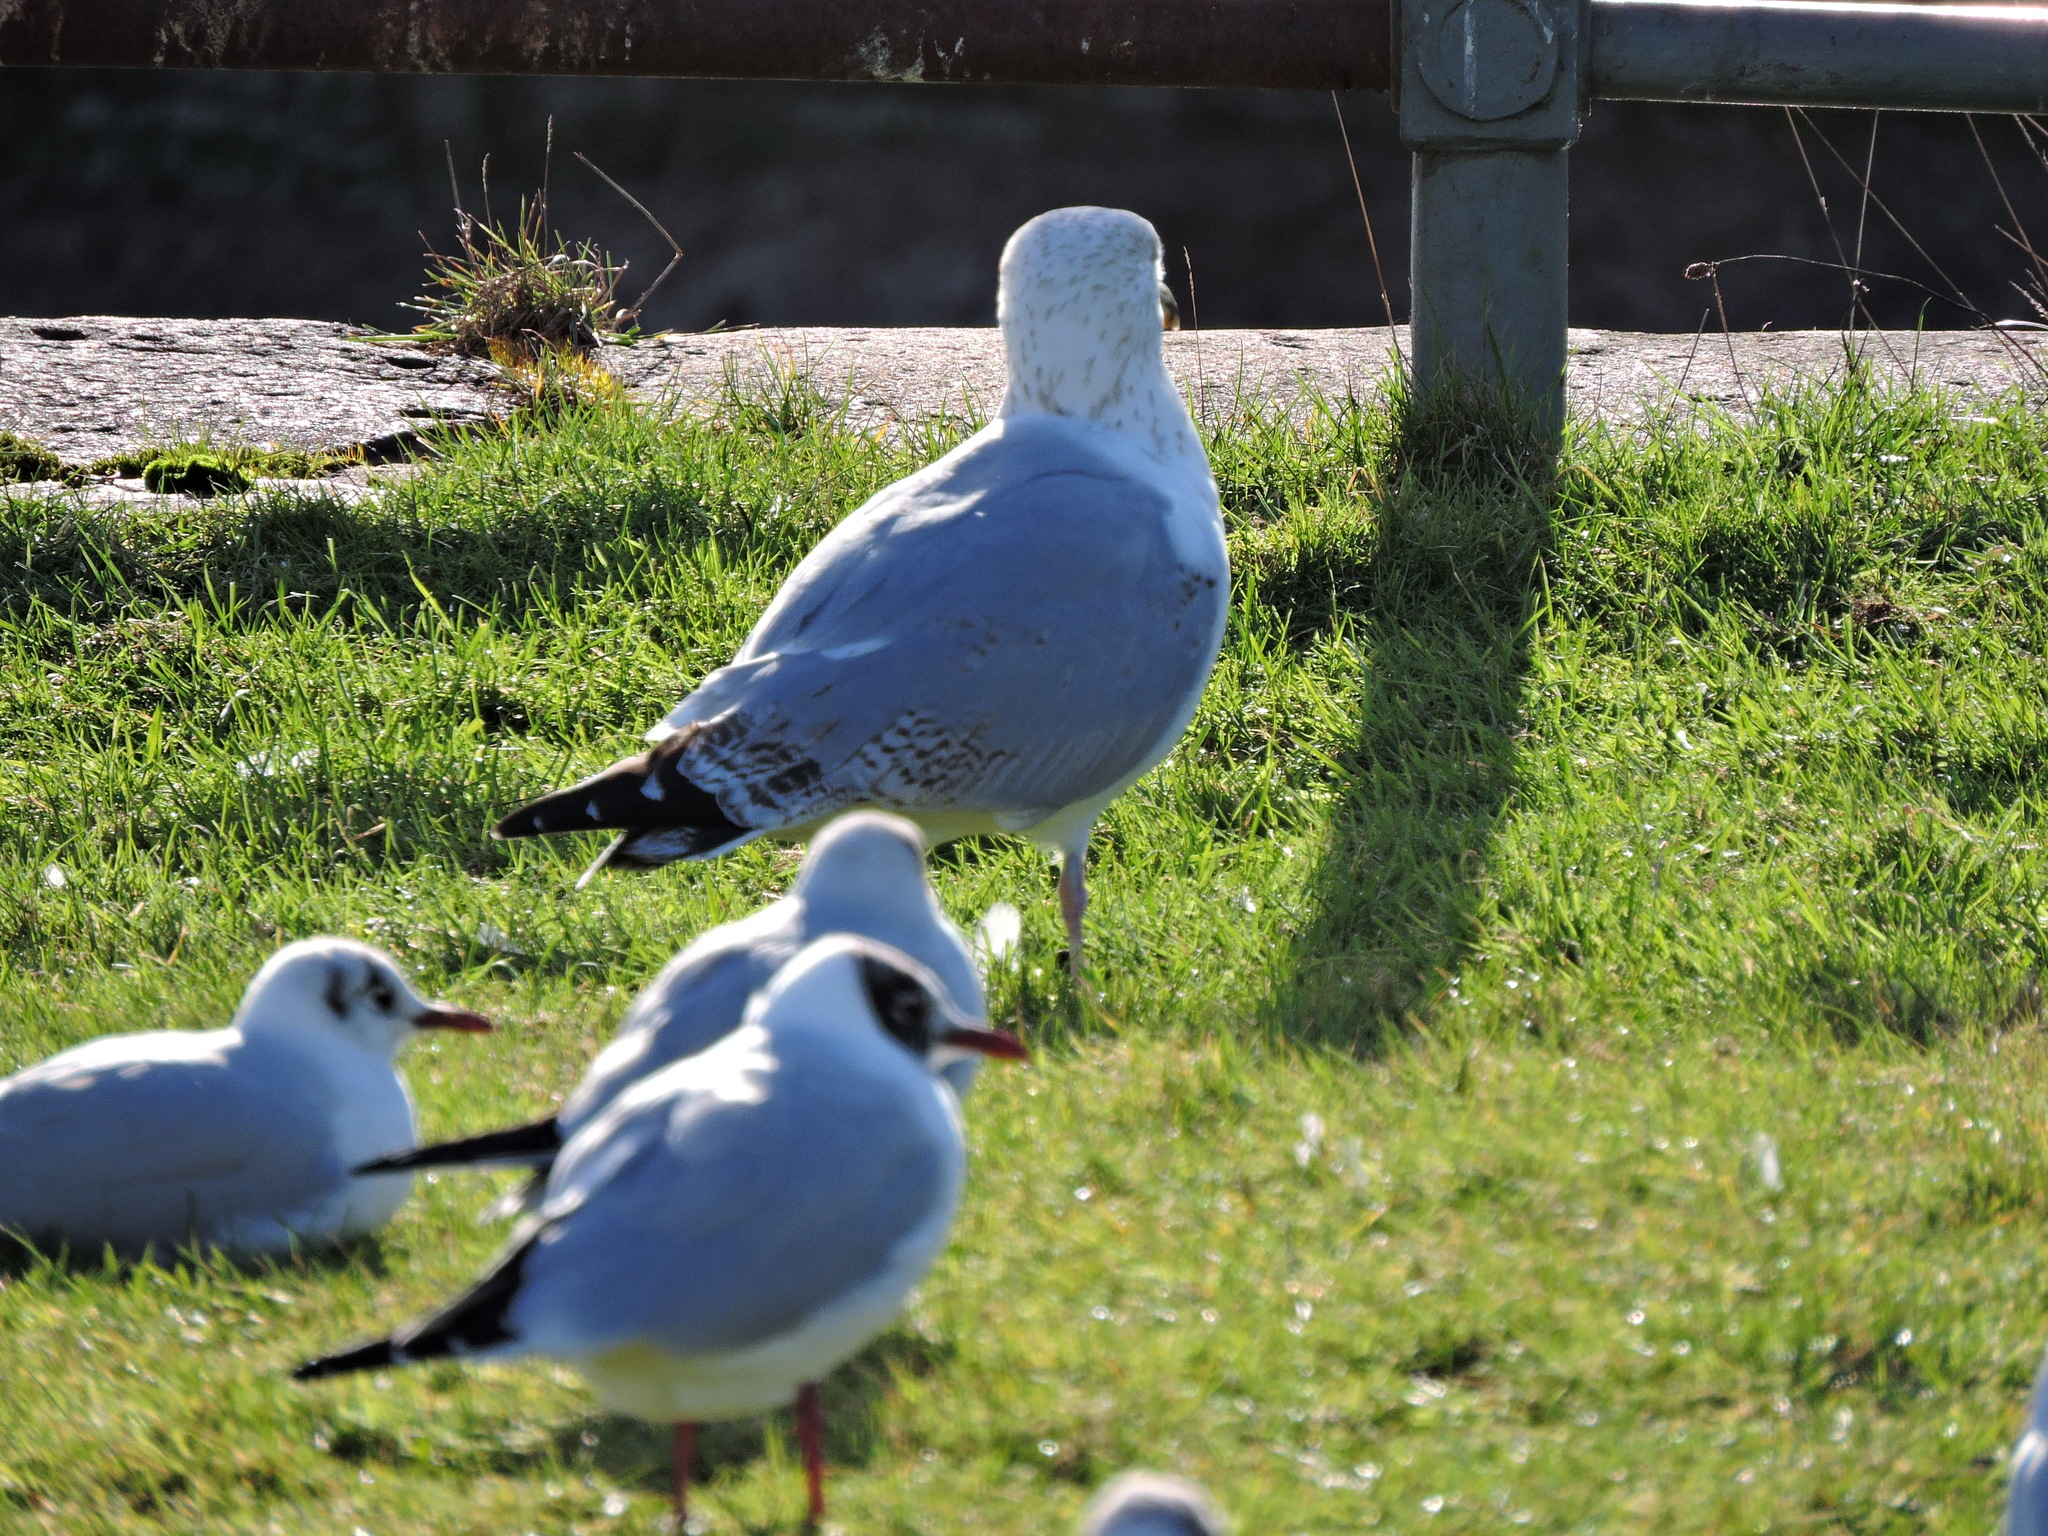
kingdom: Animalia
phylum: Chordata
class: Aves
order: Charadriiformes
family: Laridae
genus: Chroicocephalus
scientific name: Chroicocephalus ridibundus
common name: Black-headed gull
